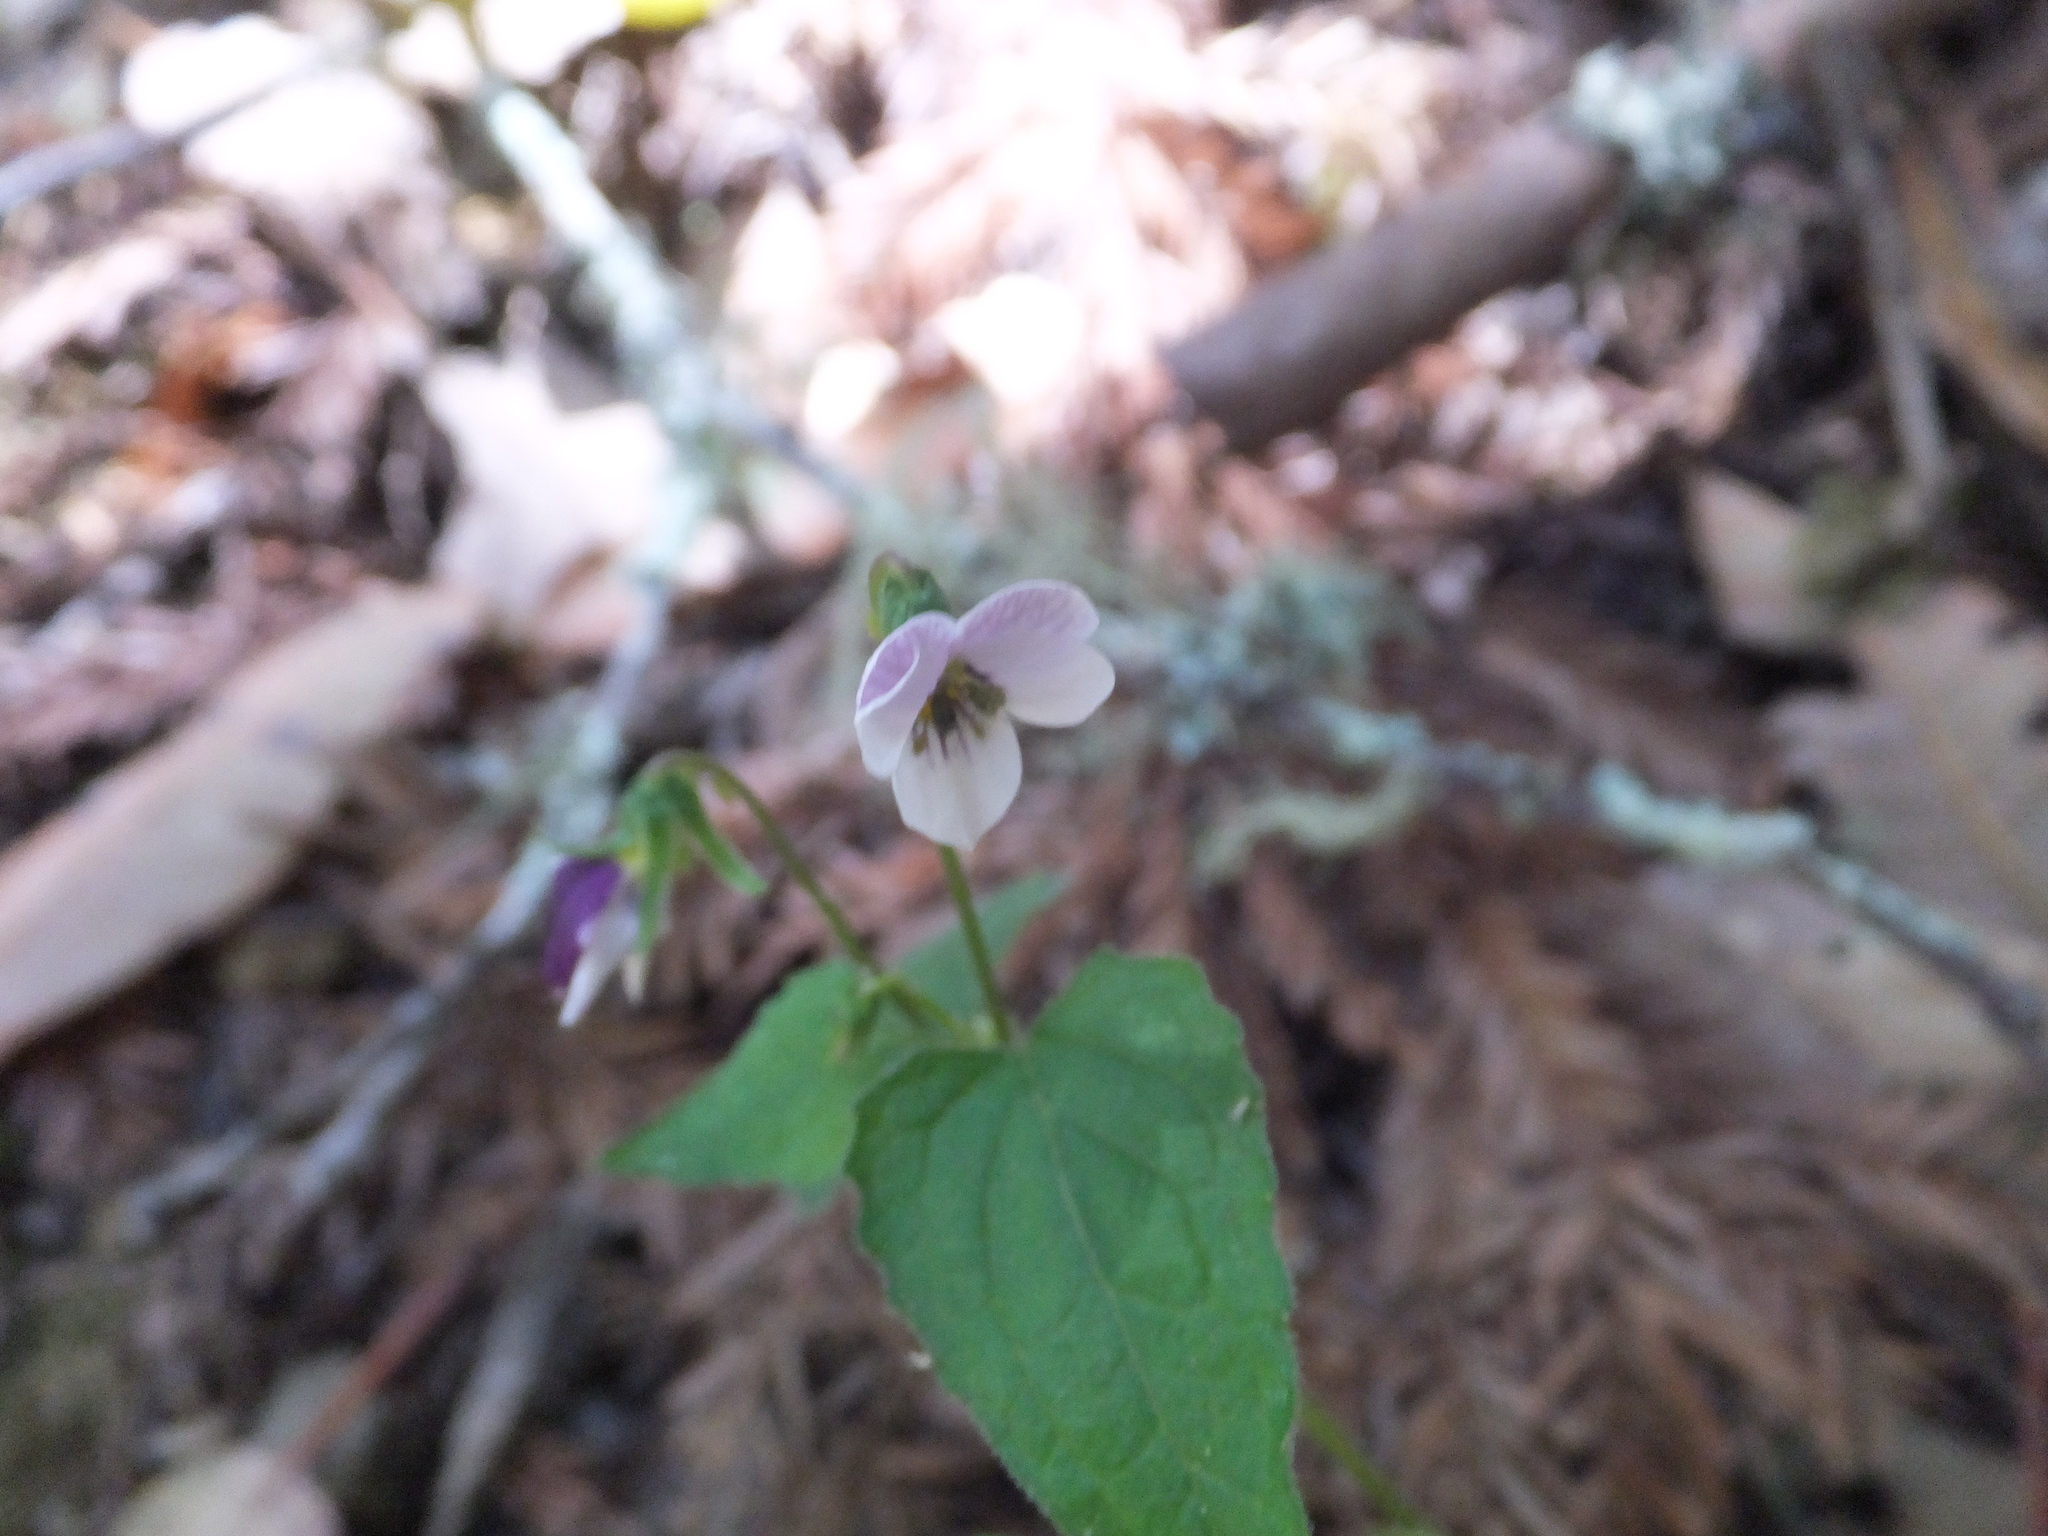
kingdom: Plantae
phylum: Tracheophyta
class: Magnoliopsida
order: Malpighiales
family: Violaceae
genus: Viola
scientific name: Viola ocellata
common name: Western heart's ease
